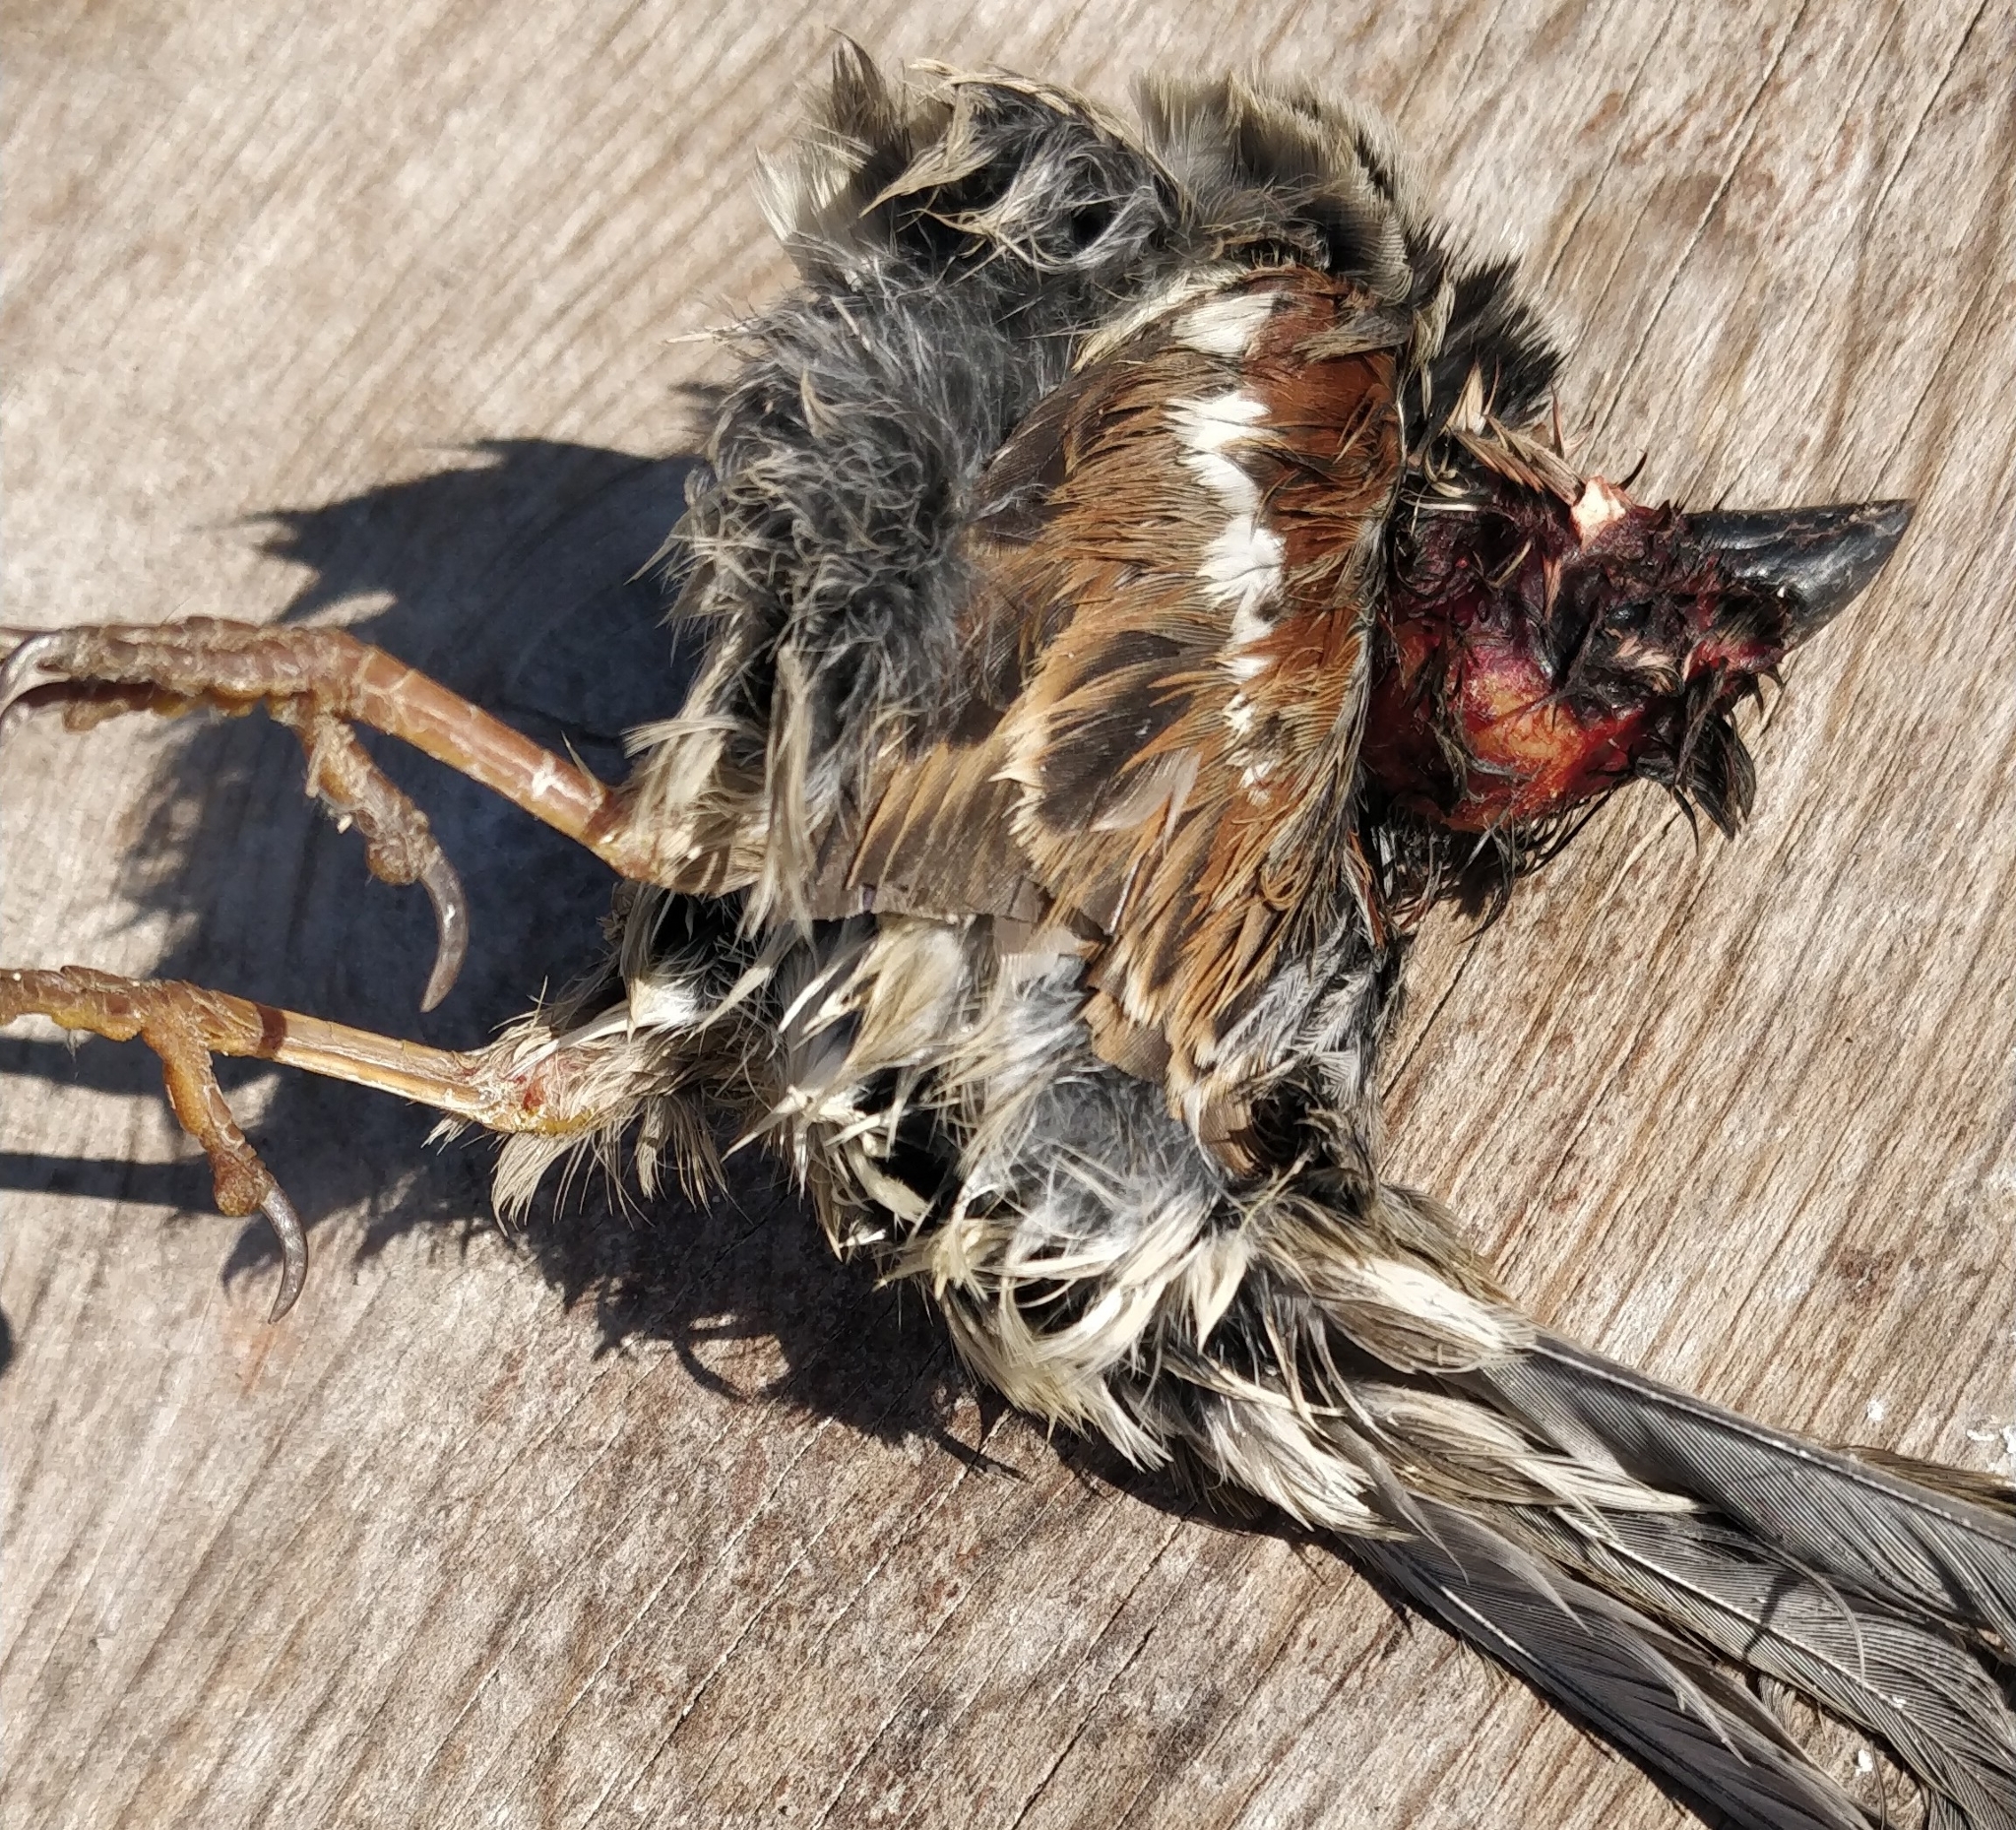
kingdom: Animalia
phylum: Chordata
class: Aves
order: Passeriformes
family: Passeridae
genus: Passer
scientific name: Passer domesticus
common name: House sparrow
